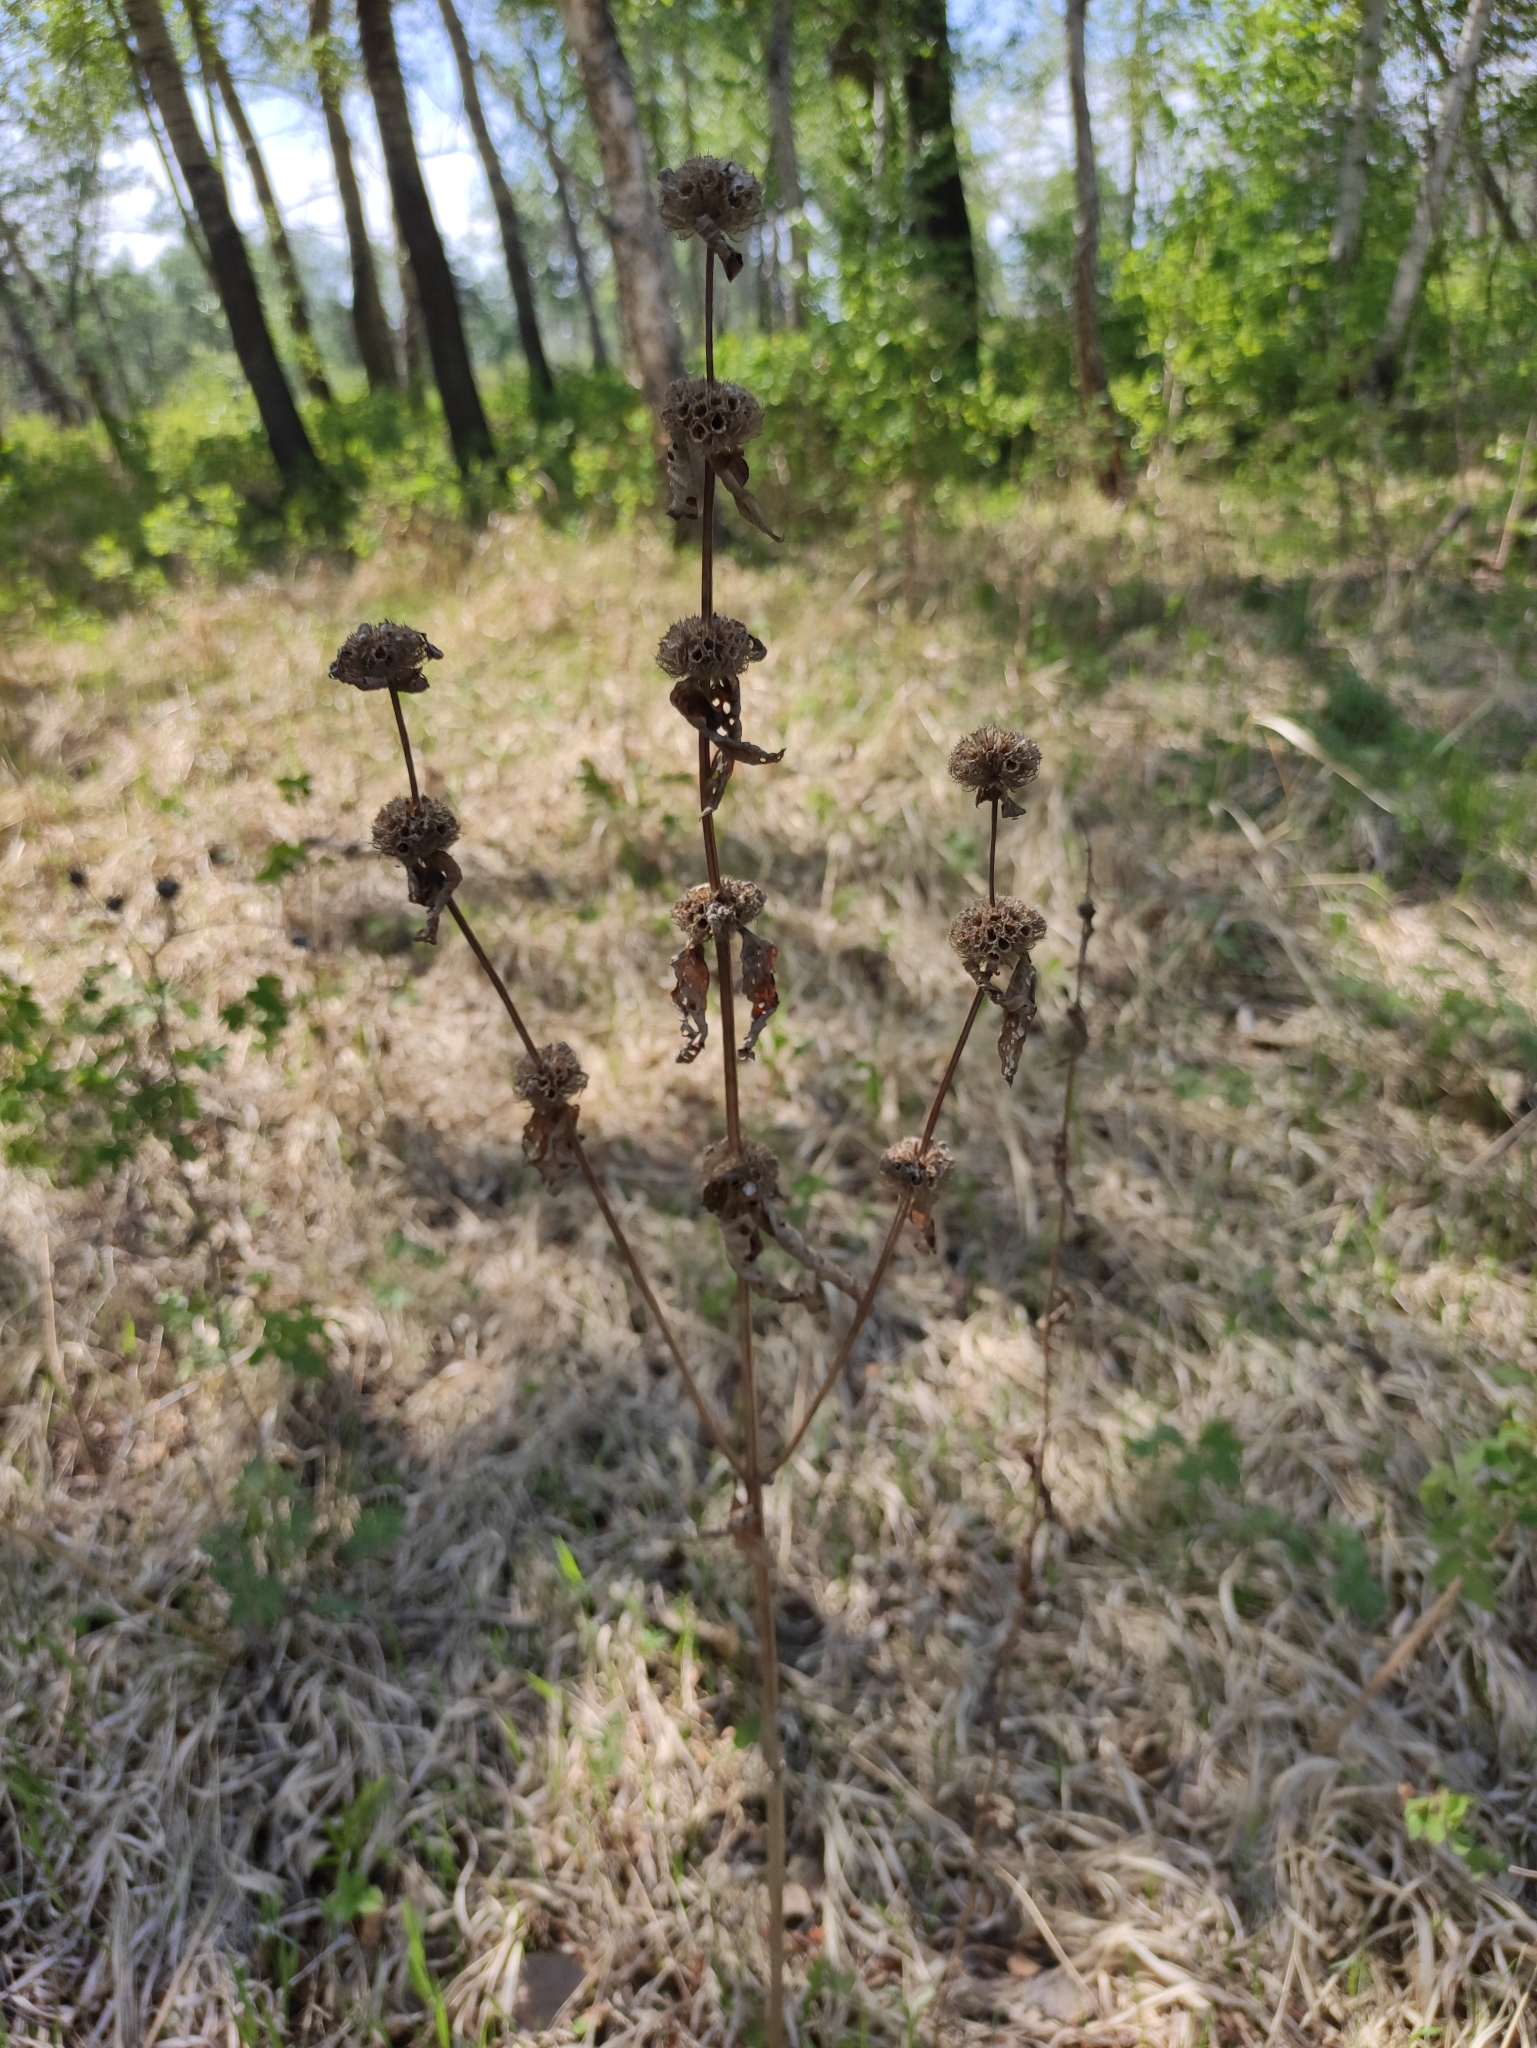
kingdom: Plantae
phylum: Tracheophyta
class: Magnoliopsida
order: Lamiales
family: Lamiaceae
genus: Phlomoides
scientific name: Phlomoides tuberosa
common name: Tuberous jerusalem sage
